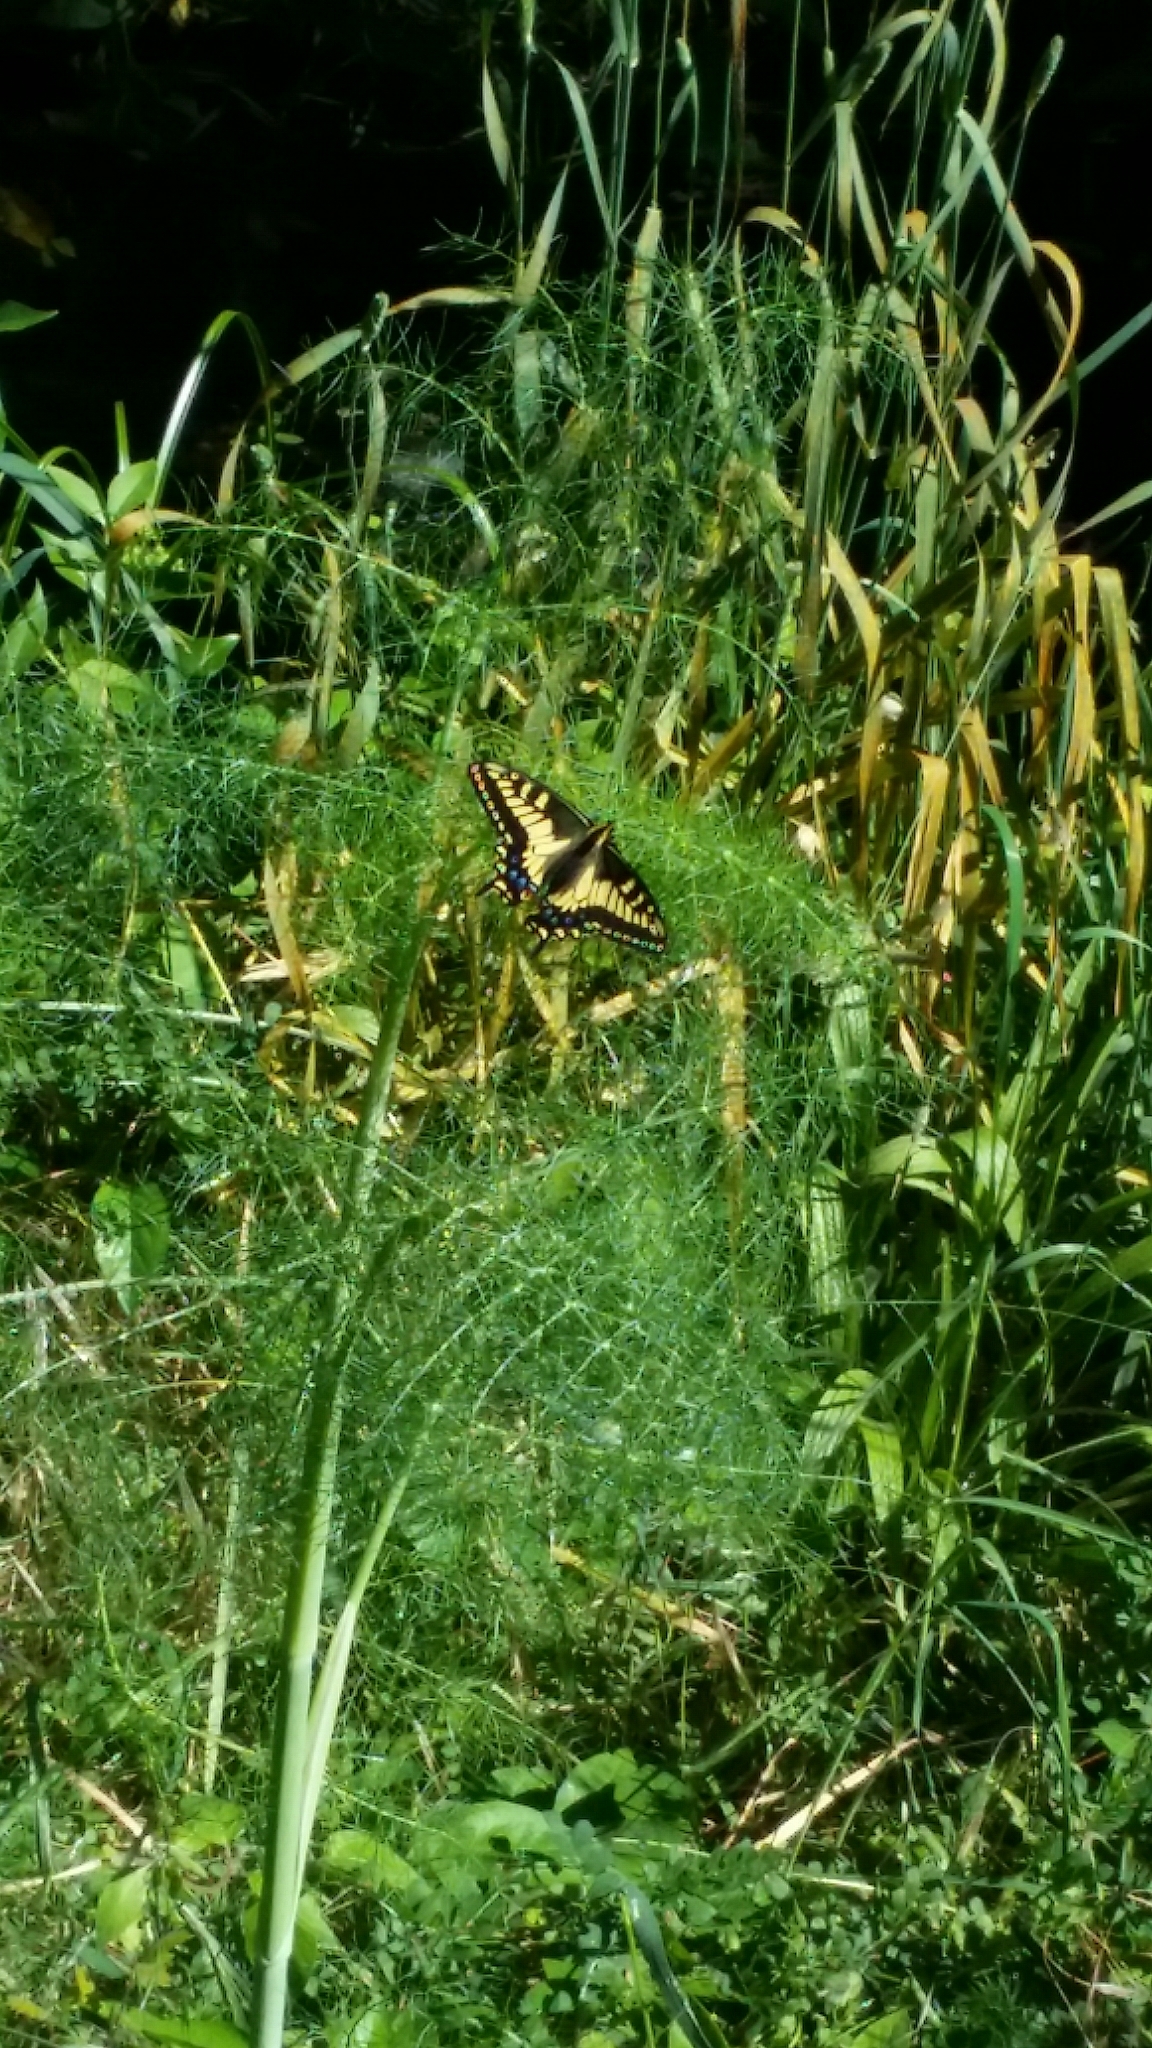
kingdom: Animalia
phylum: Arthropoda
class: Insecta
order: Lepidoptera
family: Papilionidae
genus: Papilio
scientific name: Papilio zelicaon
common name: Anise swallowtail
